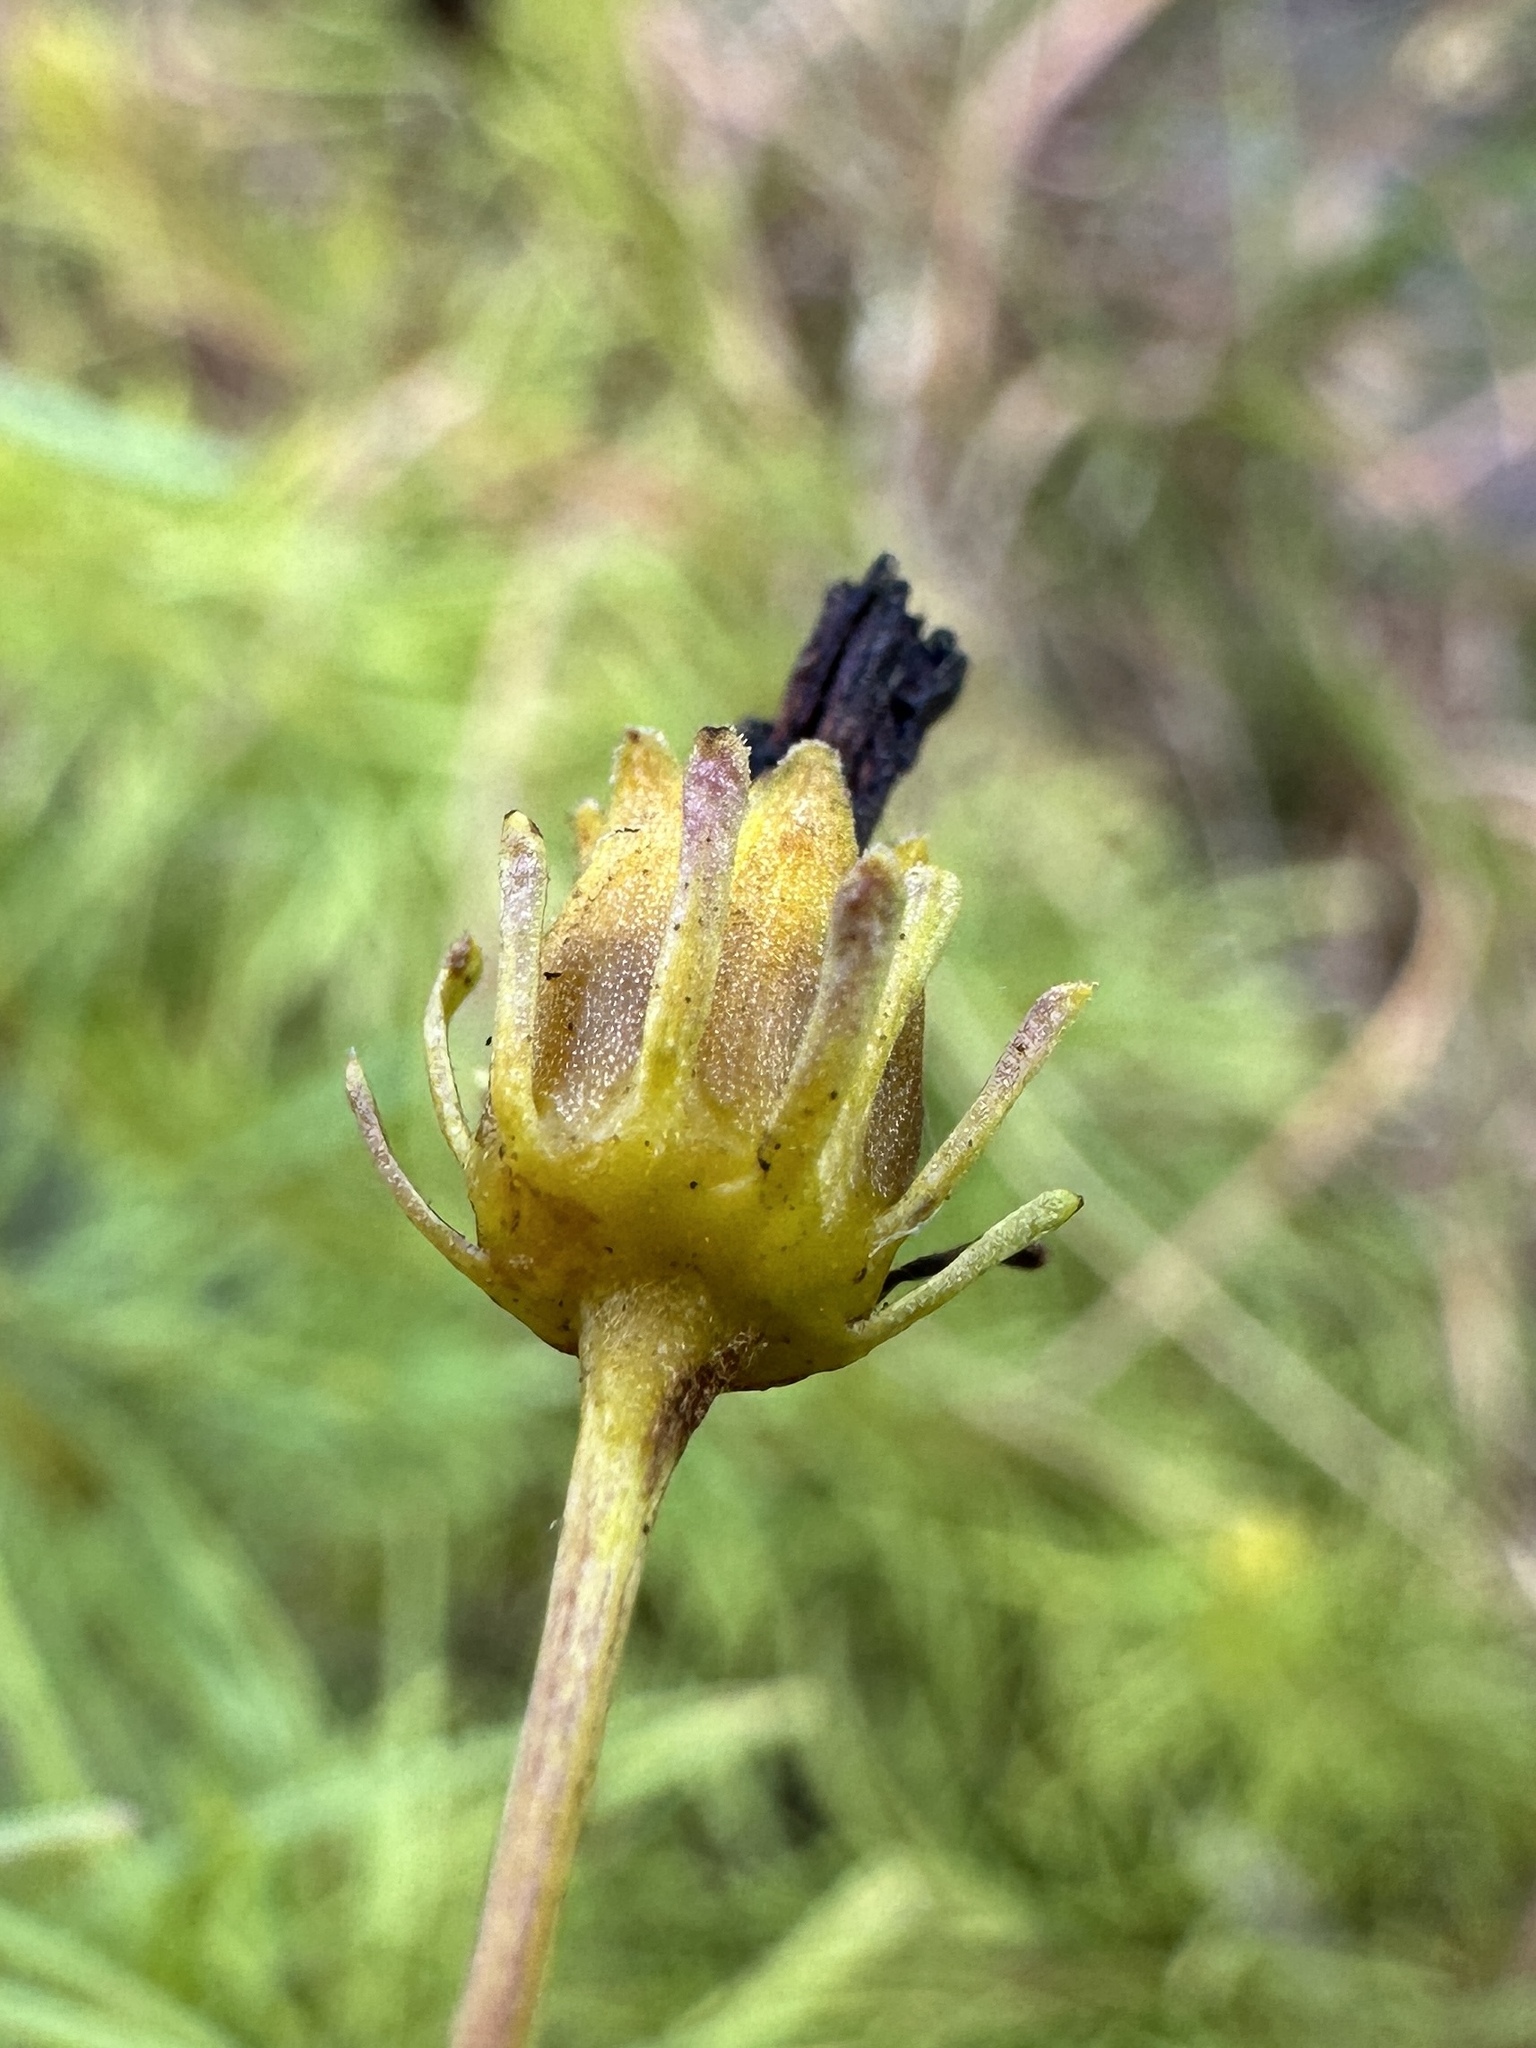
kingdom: Plantae
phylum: Tracheophyta
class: Magnoliopsida
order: Asterales
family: Asteraceae
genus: Coreopsis
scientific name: Coreopsis pulchra
